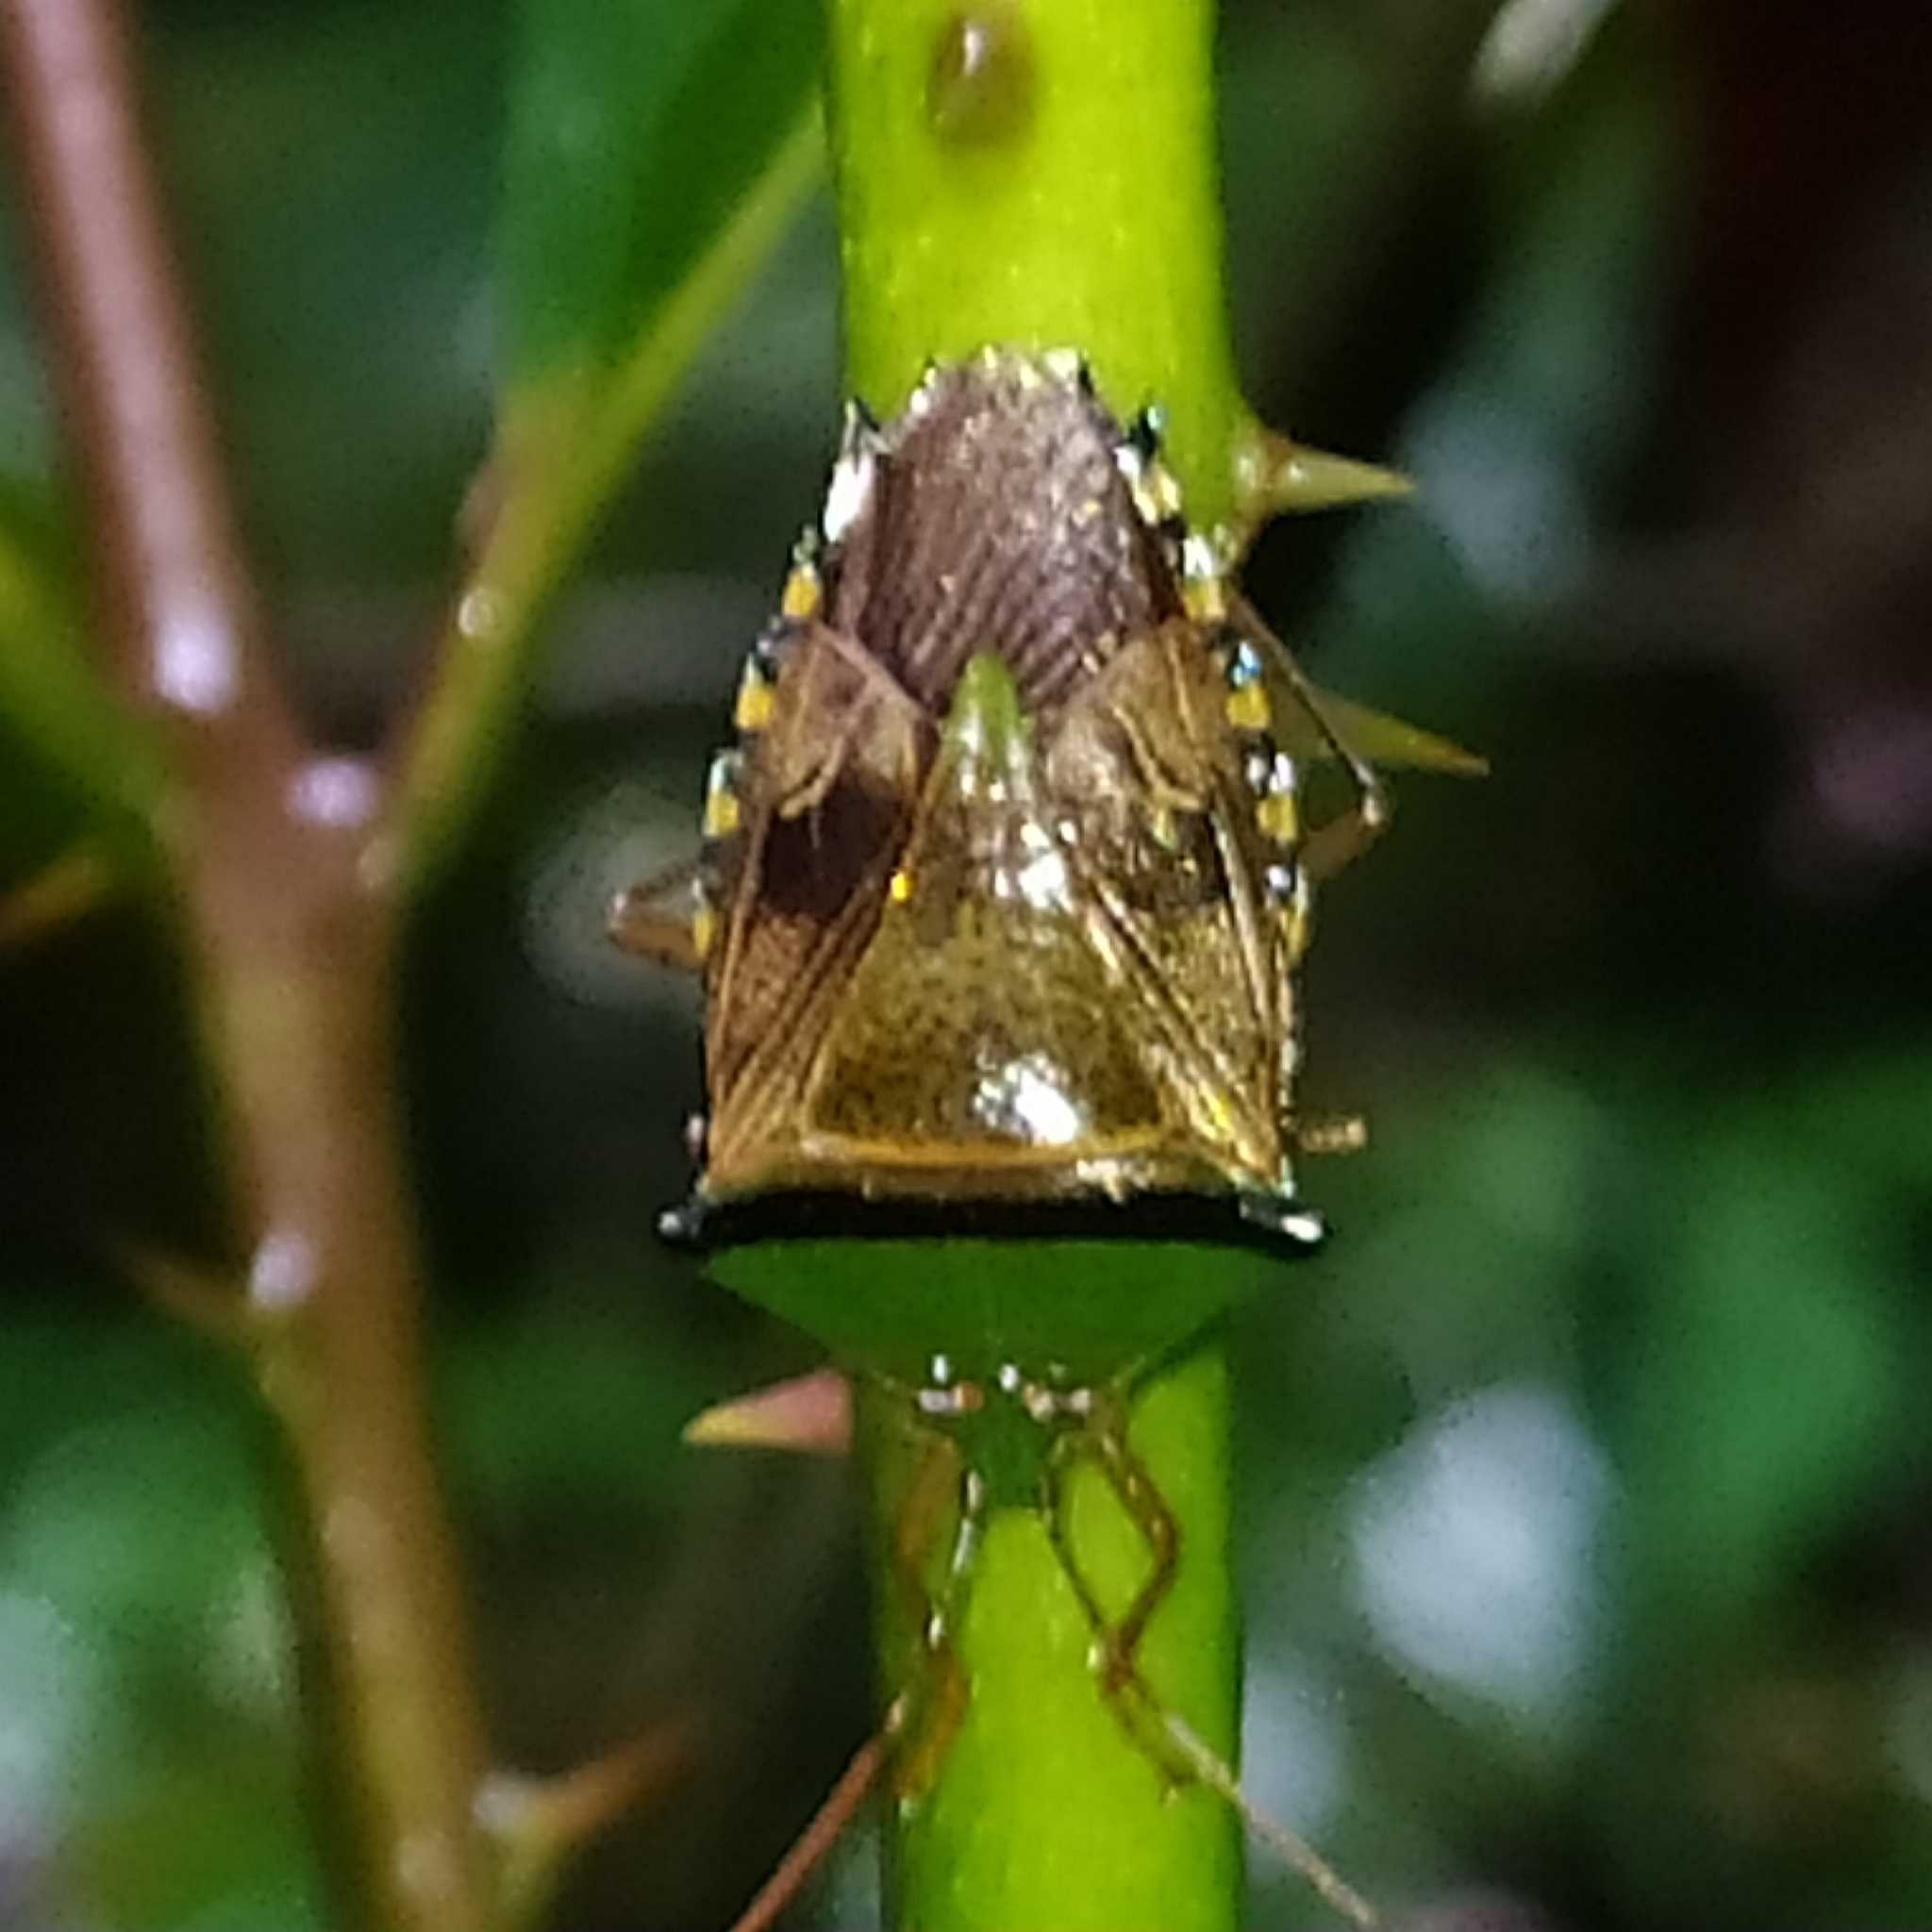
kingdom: Animalia
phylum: Arthropoda
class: Insecta
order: Hemiptera
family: Pentatomidae
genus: Hypoxys
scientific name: Hypoxys trabeculus
